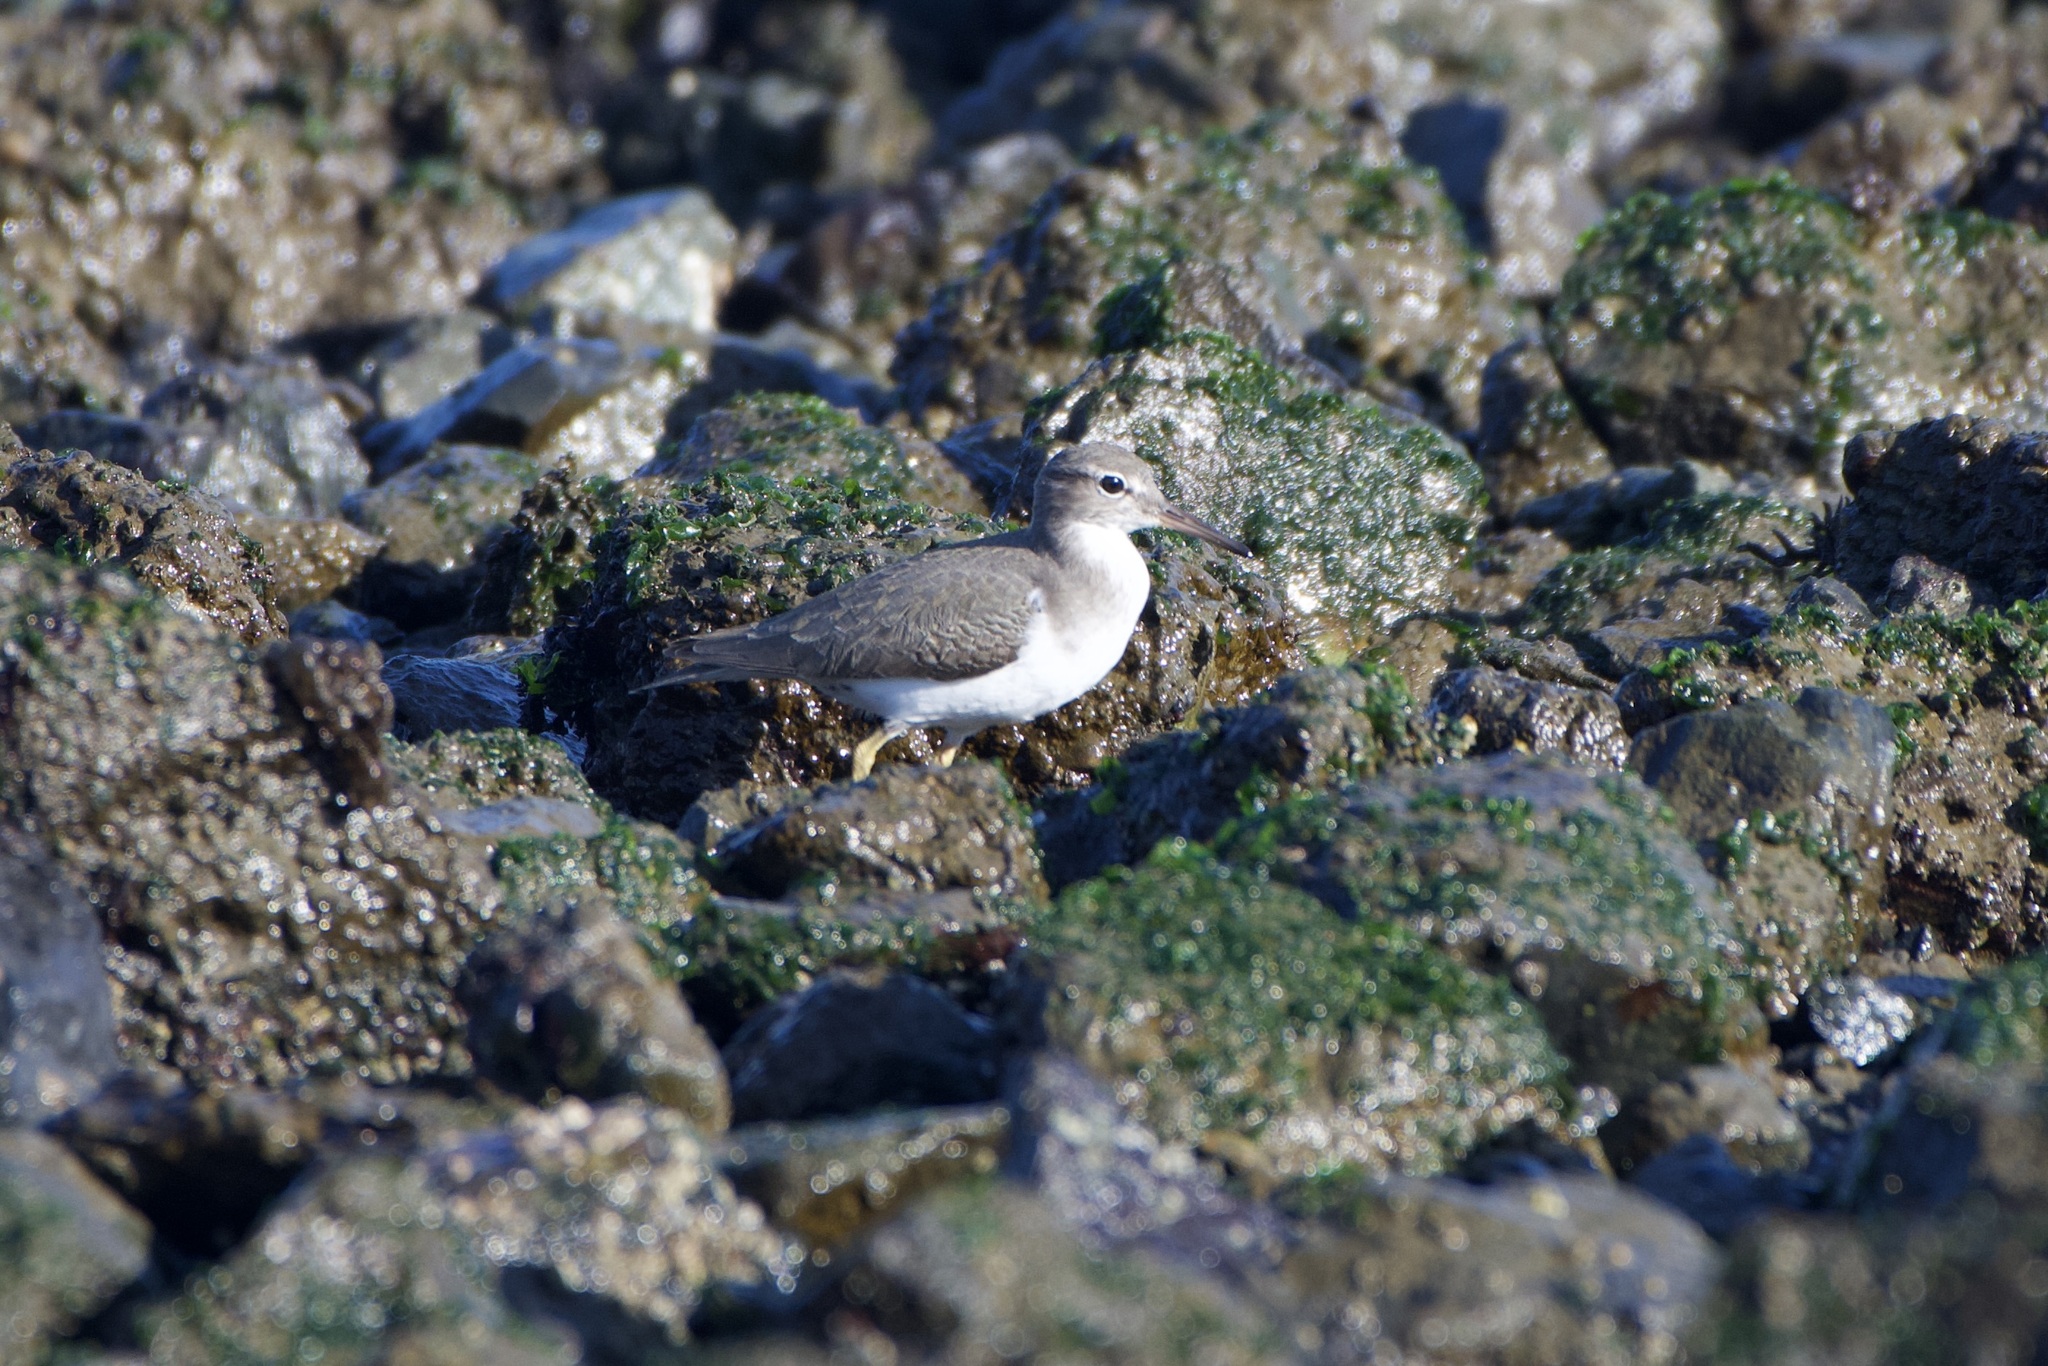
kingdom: Animalia
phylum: Chordata
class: Aves
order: Charadriiformes
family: Scolopacidae
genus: Actitis
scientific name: Actitis macularius
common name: Spotted sandpiper
